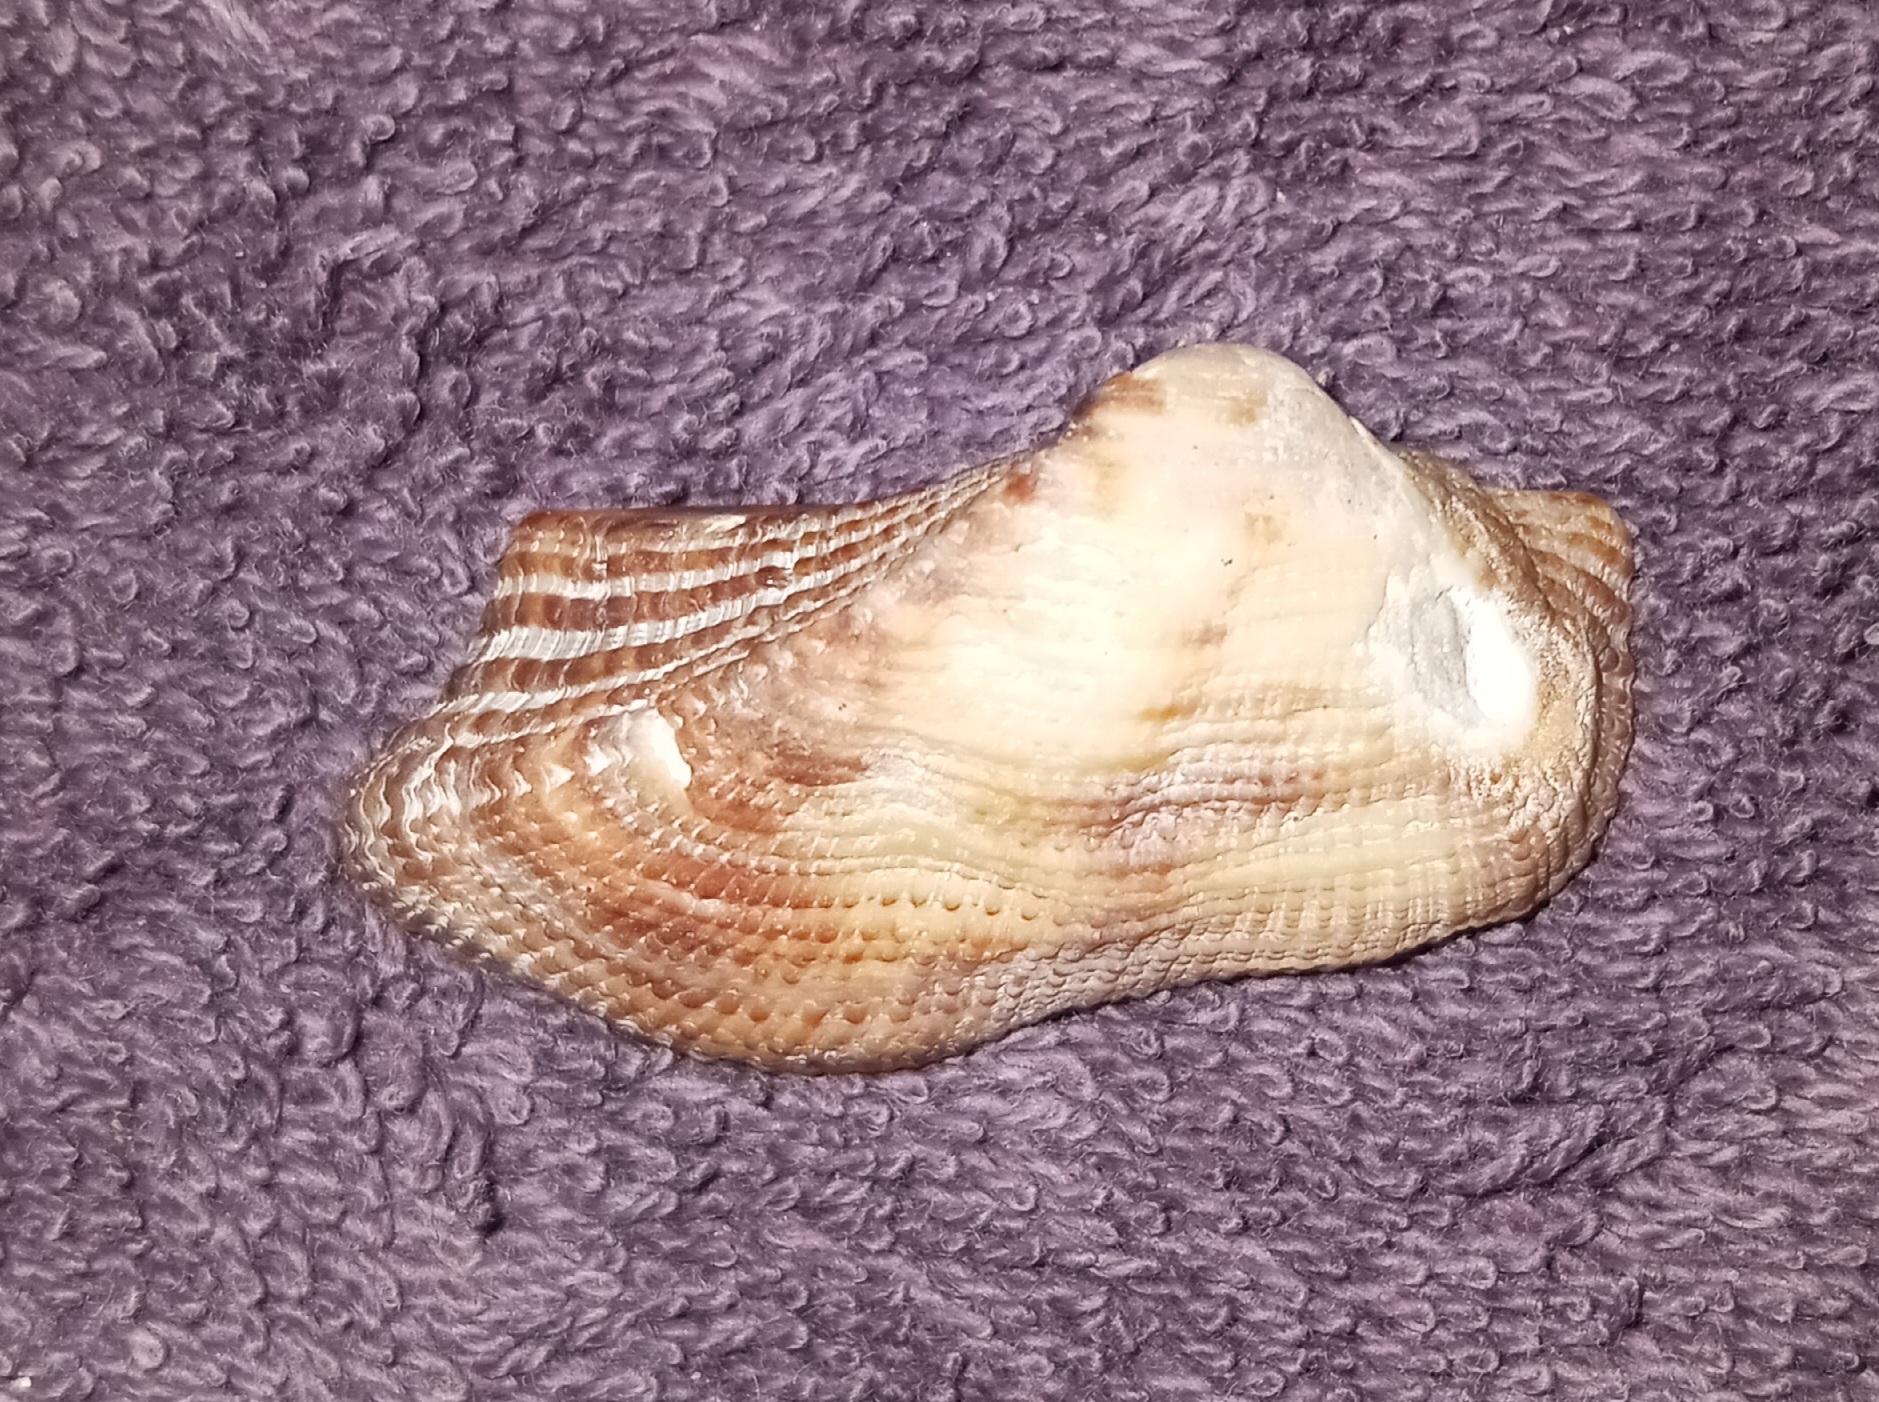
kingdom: Animalia
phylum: Mollusca
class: Bivalvia
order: Arcida
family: Arcidae
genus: Lamarcka
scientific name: Lamarcka imbricata
